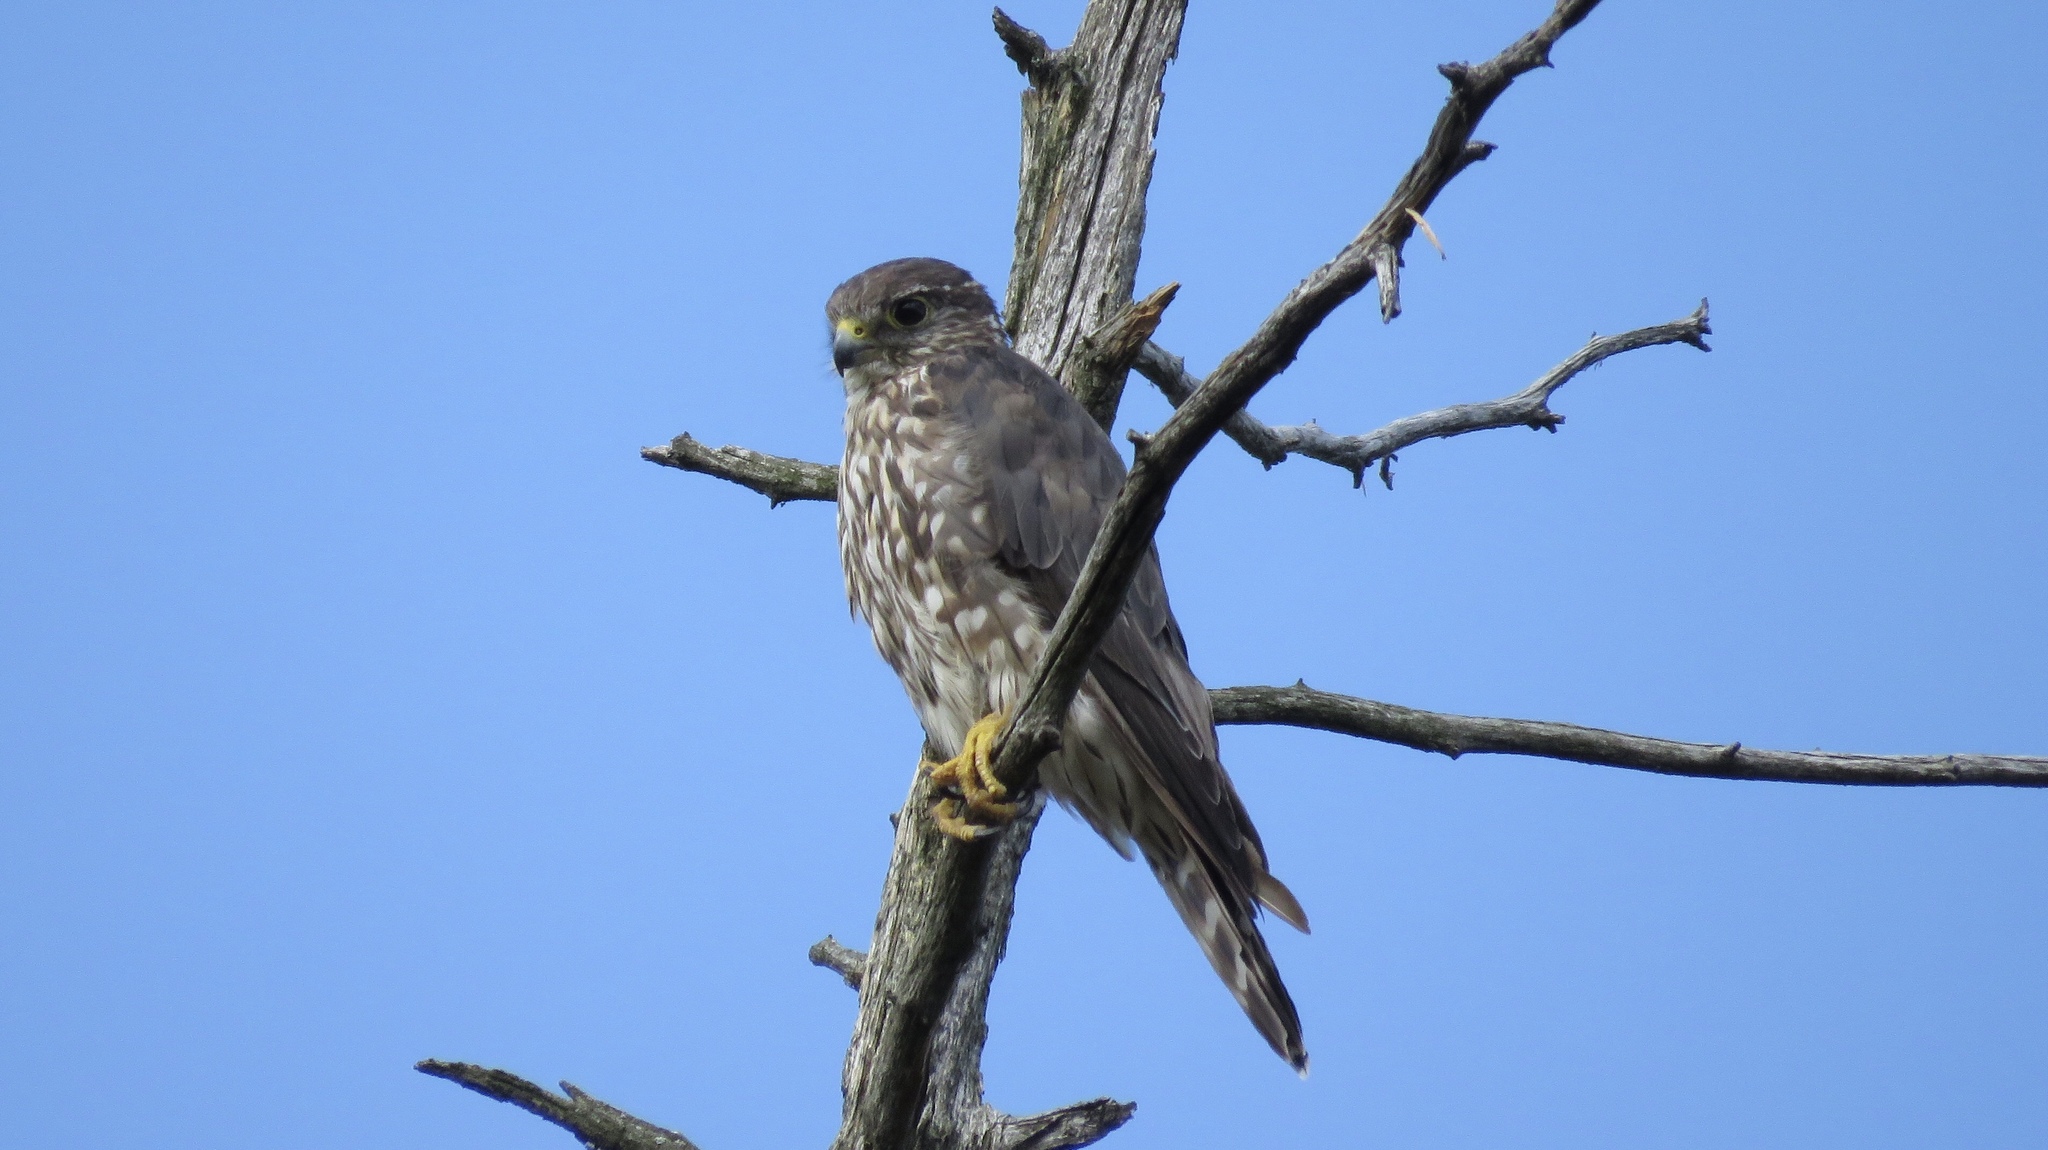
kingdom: Animalia
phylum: Chordata
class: Aves
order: Falconiformes
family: Falconidae
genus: Falco
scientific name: Falco columbarius
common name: Merlin
